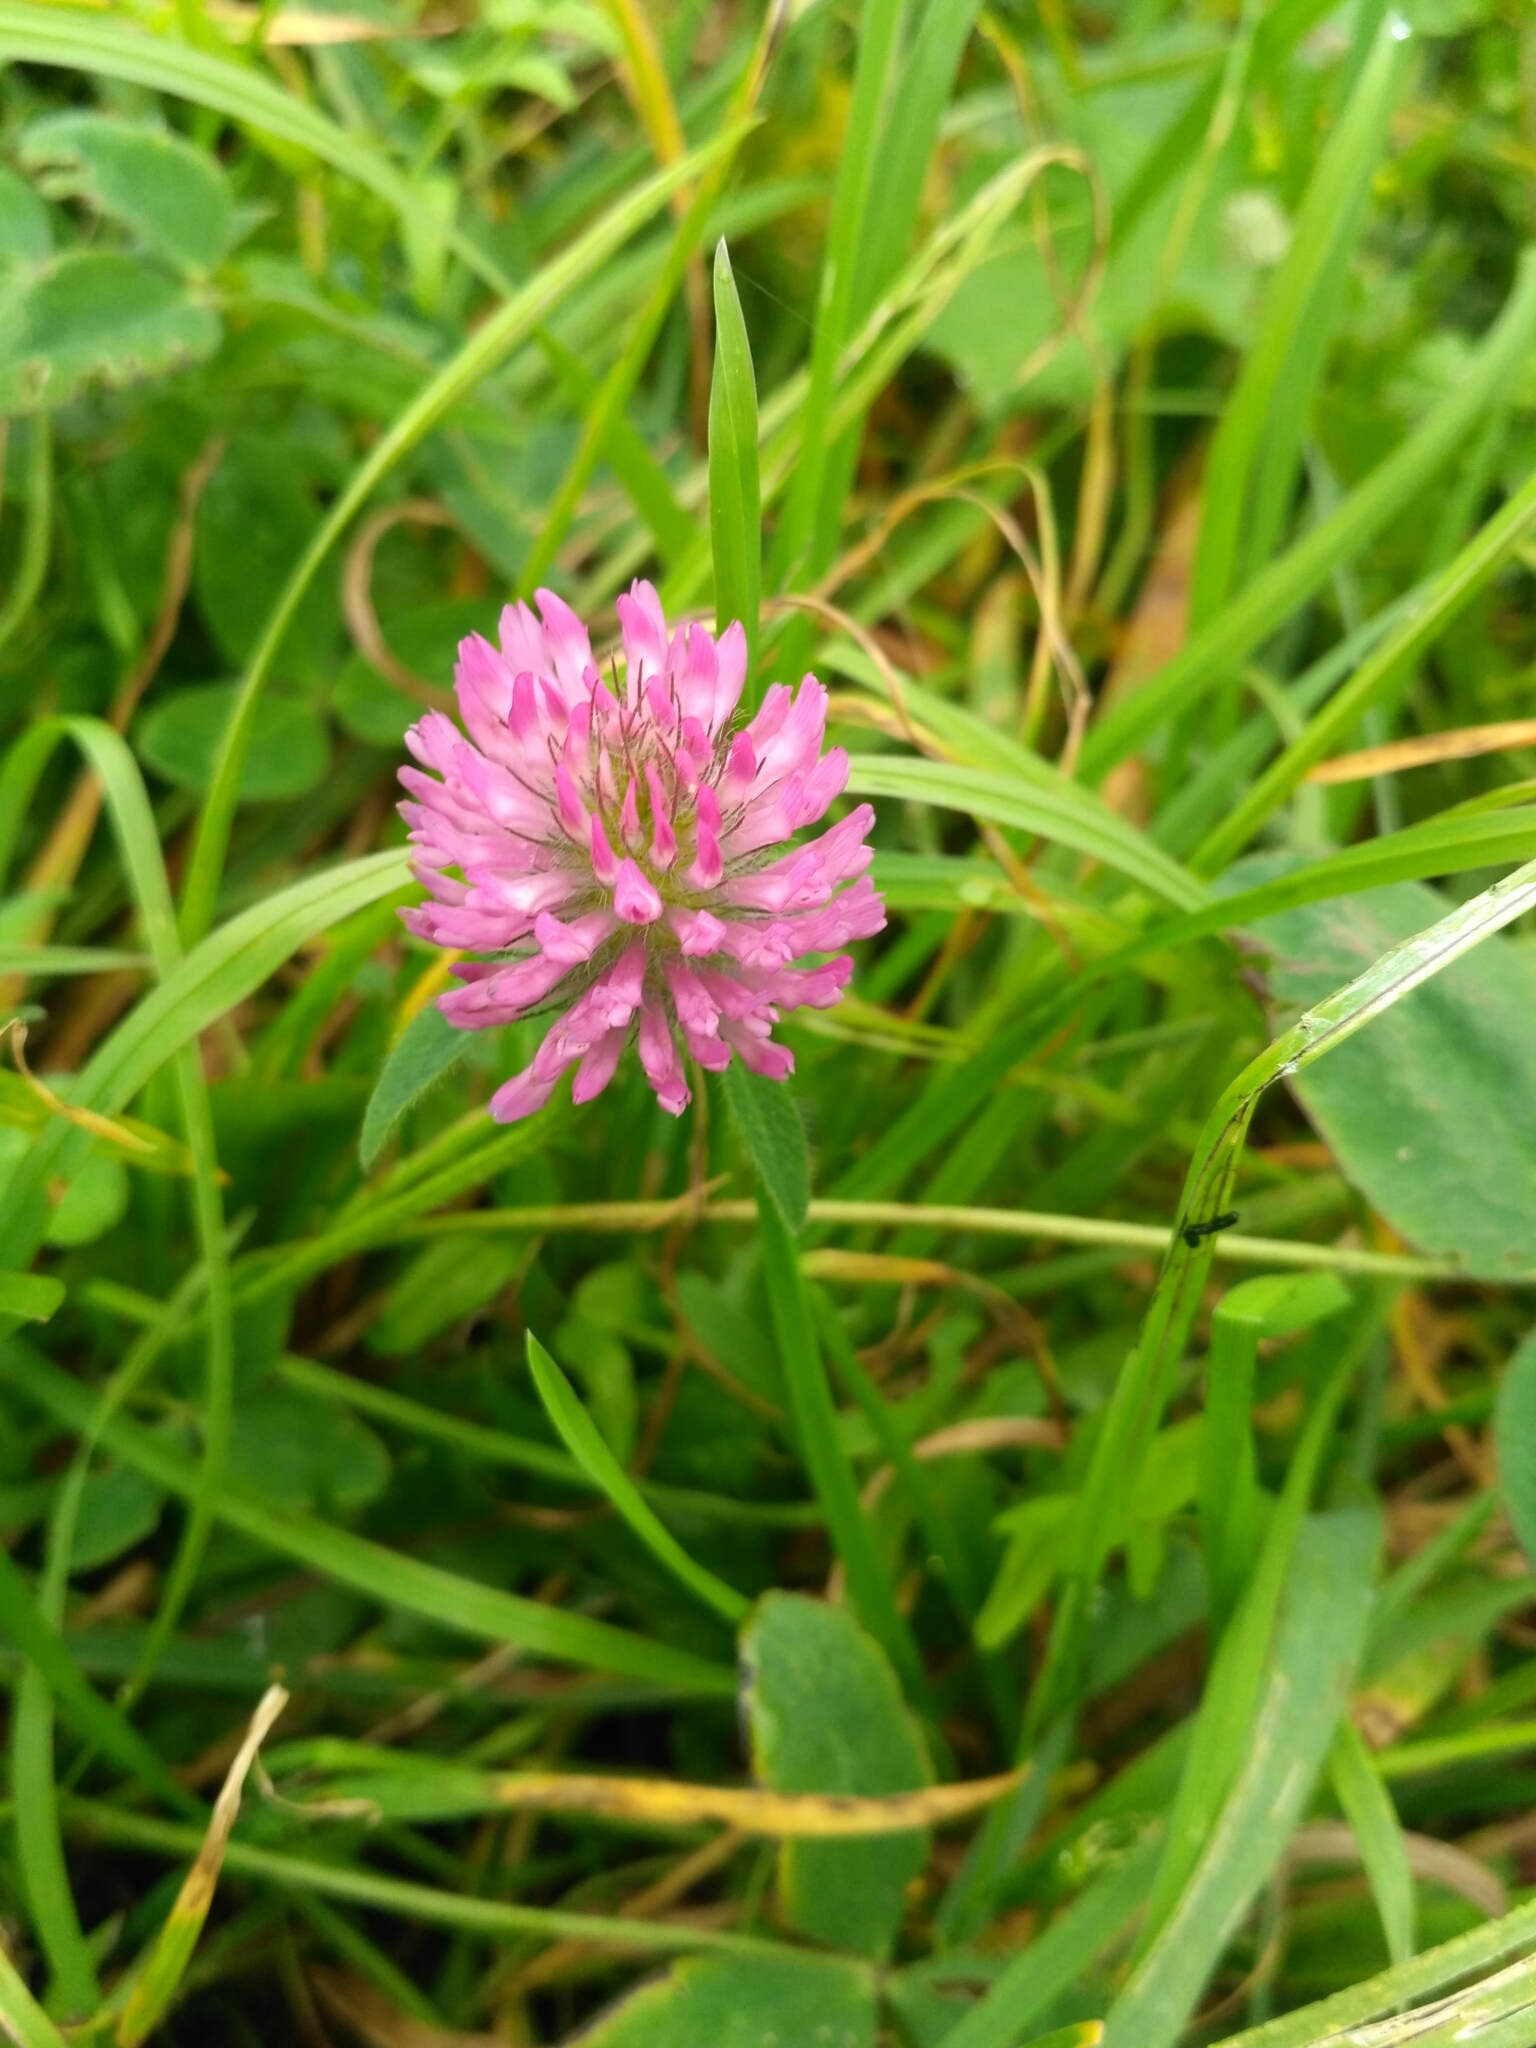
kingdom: Plantae
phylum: Tracheophyta
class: Magnoliopsida
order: Fabales
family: Fabaceae
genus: Trifolium
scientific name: Trifolium pratense
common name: Red clover
